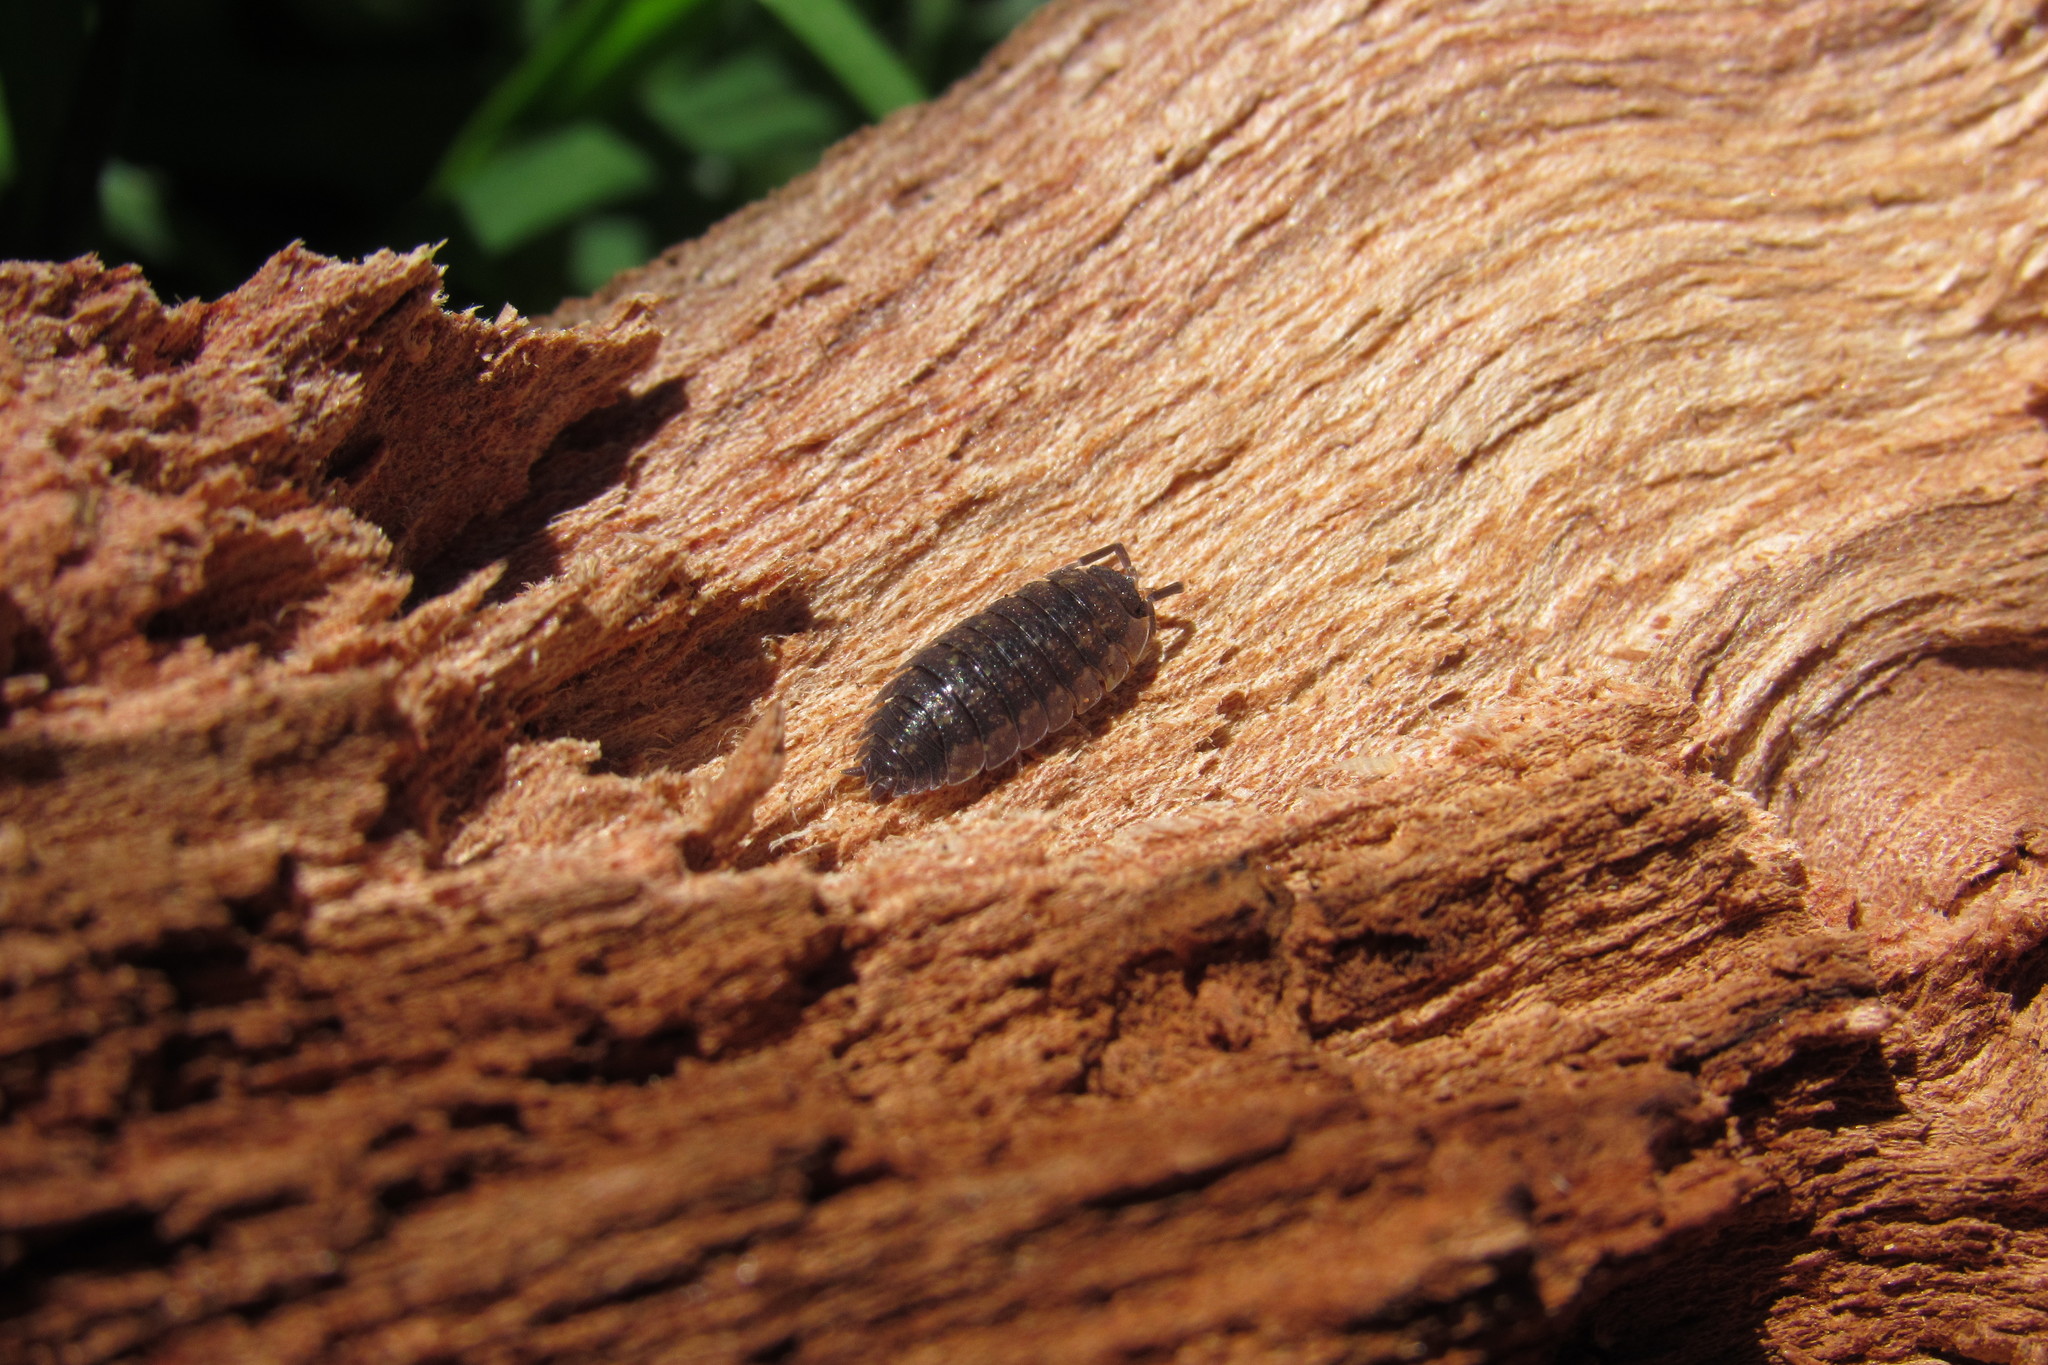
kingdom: Animalia
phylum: Arthropoda
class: Malacostraca
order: Isopoda
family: Porcellionidae
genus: Porcellio
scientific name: Porcellio scaber
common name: Common rough woodlouse
